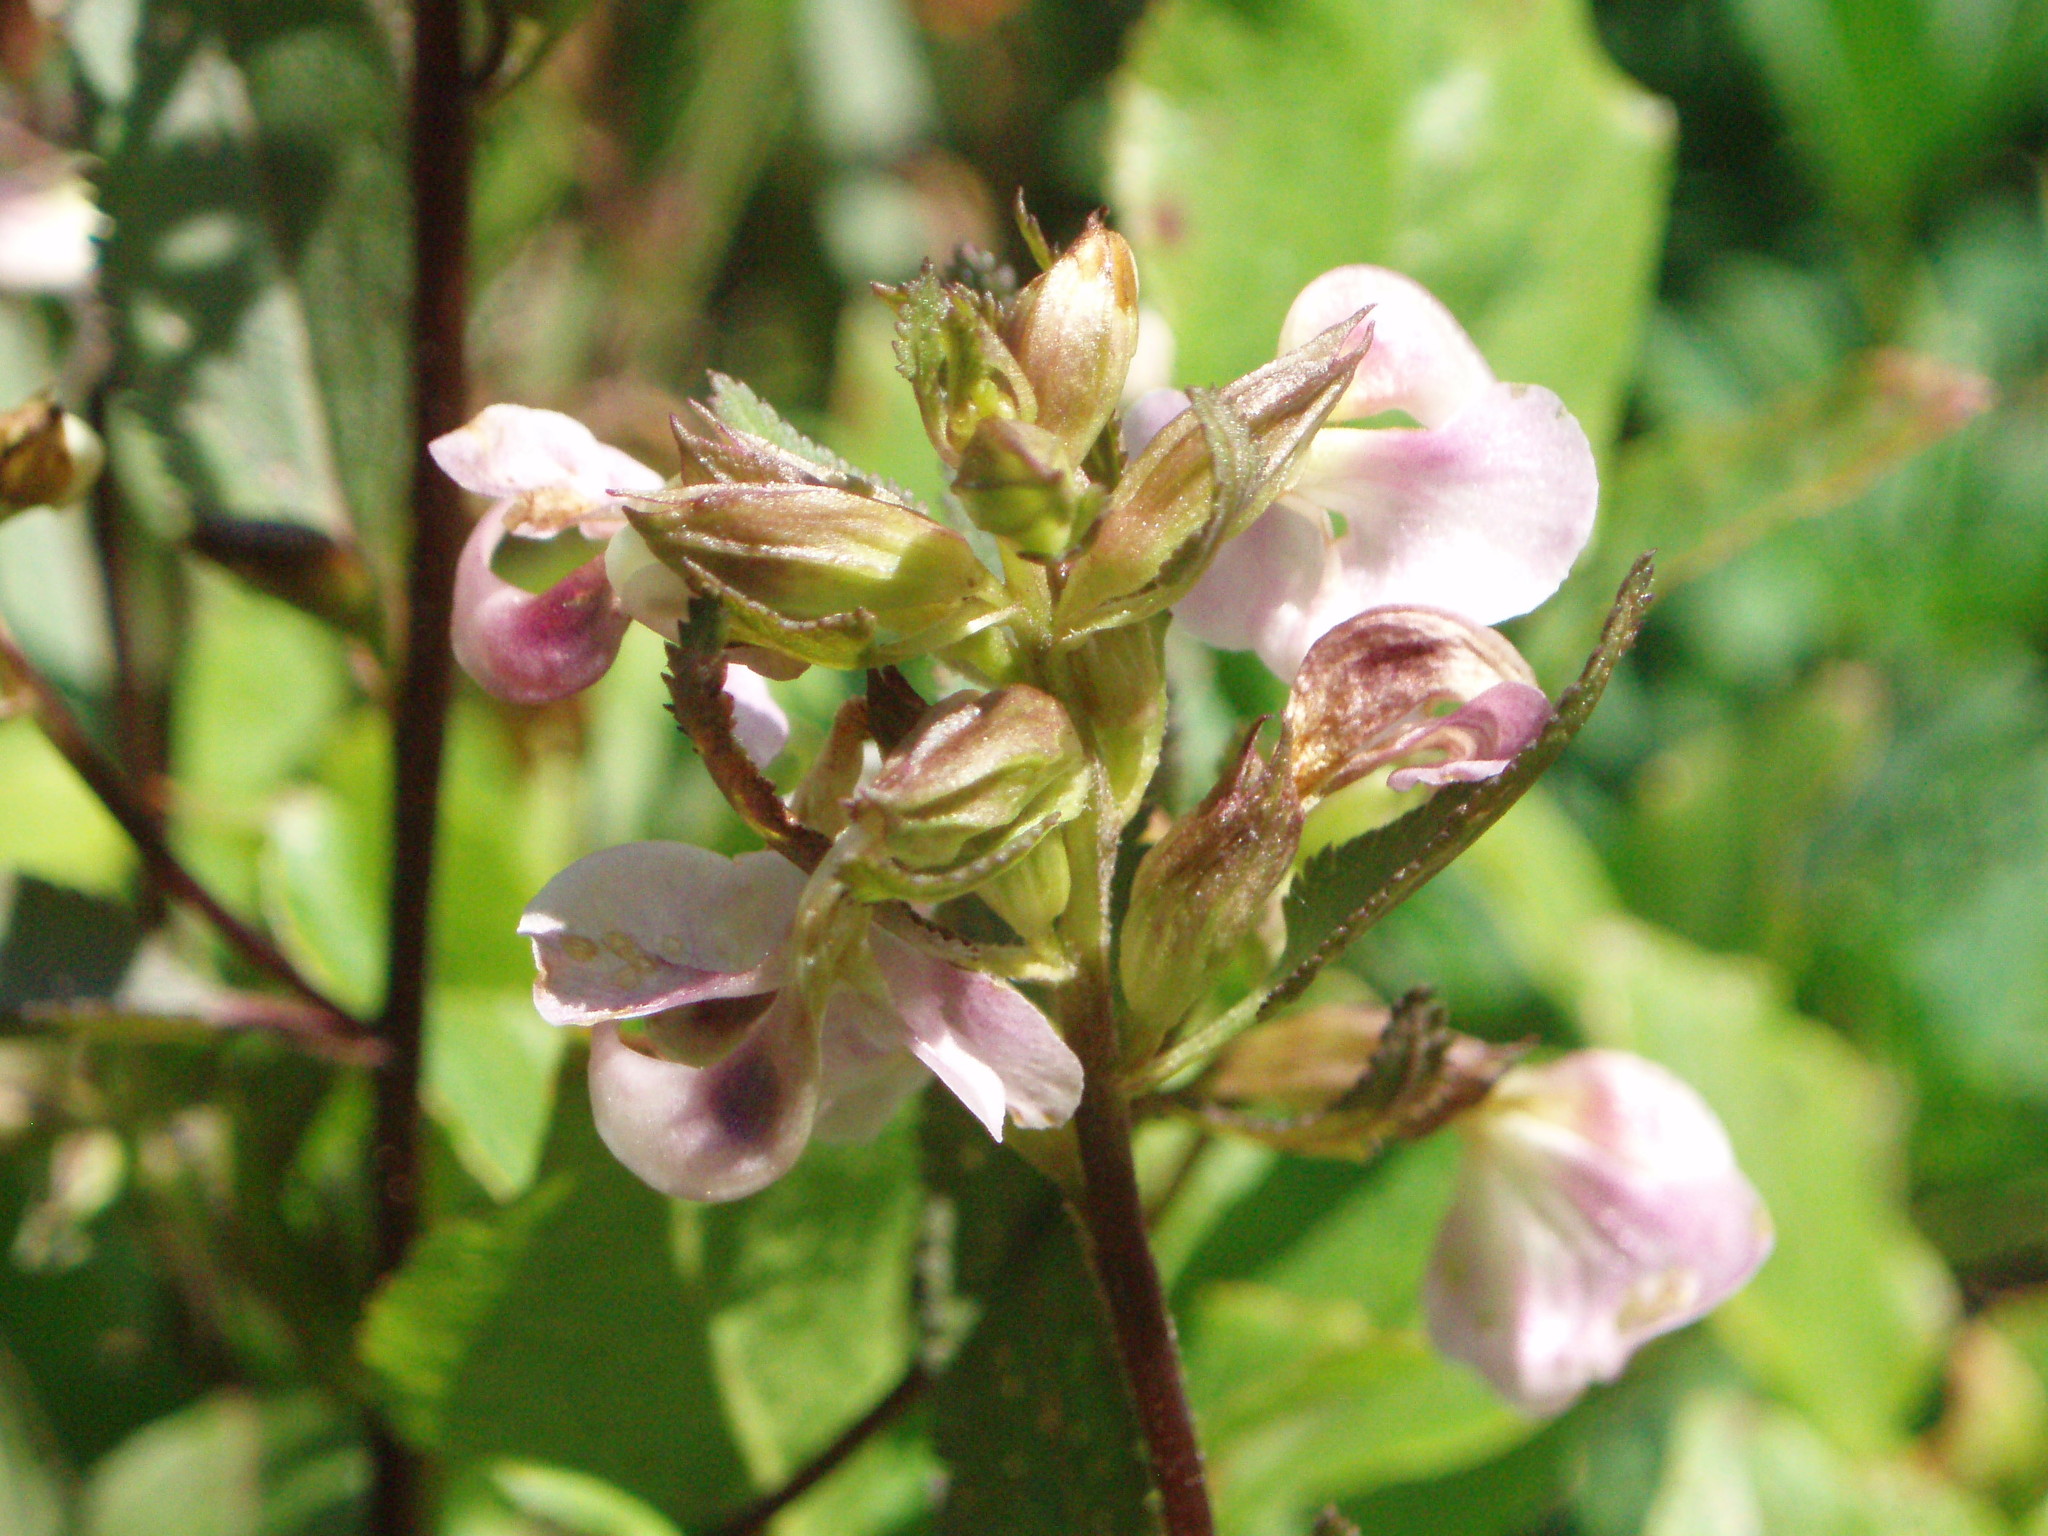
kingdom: Plantae
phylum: Tracheophyta
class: Magnoliopsida
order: Lamiales
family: Orobanchaceae
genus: Pedicularis
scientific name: Pedicularis racemosa
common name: Leafy lousewort
